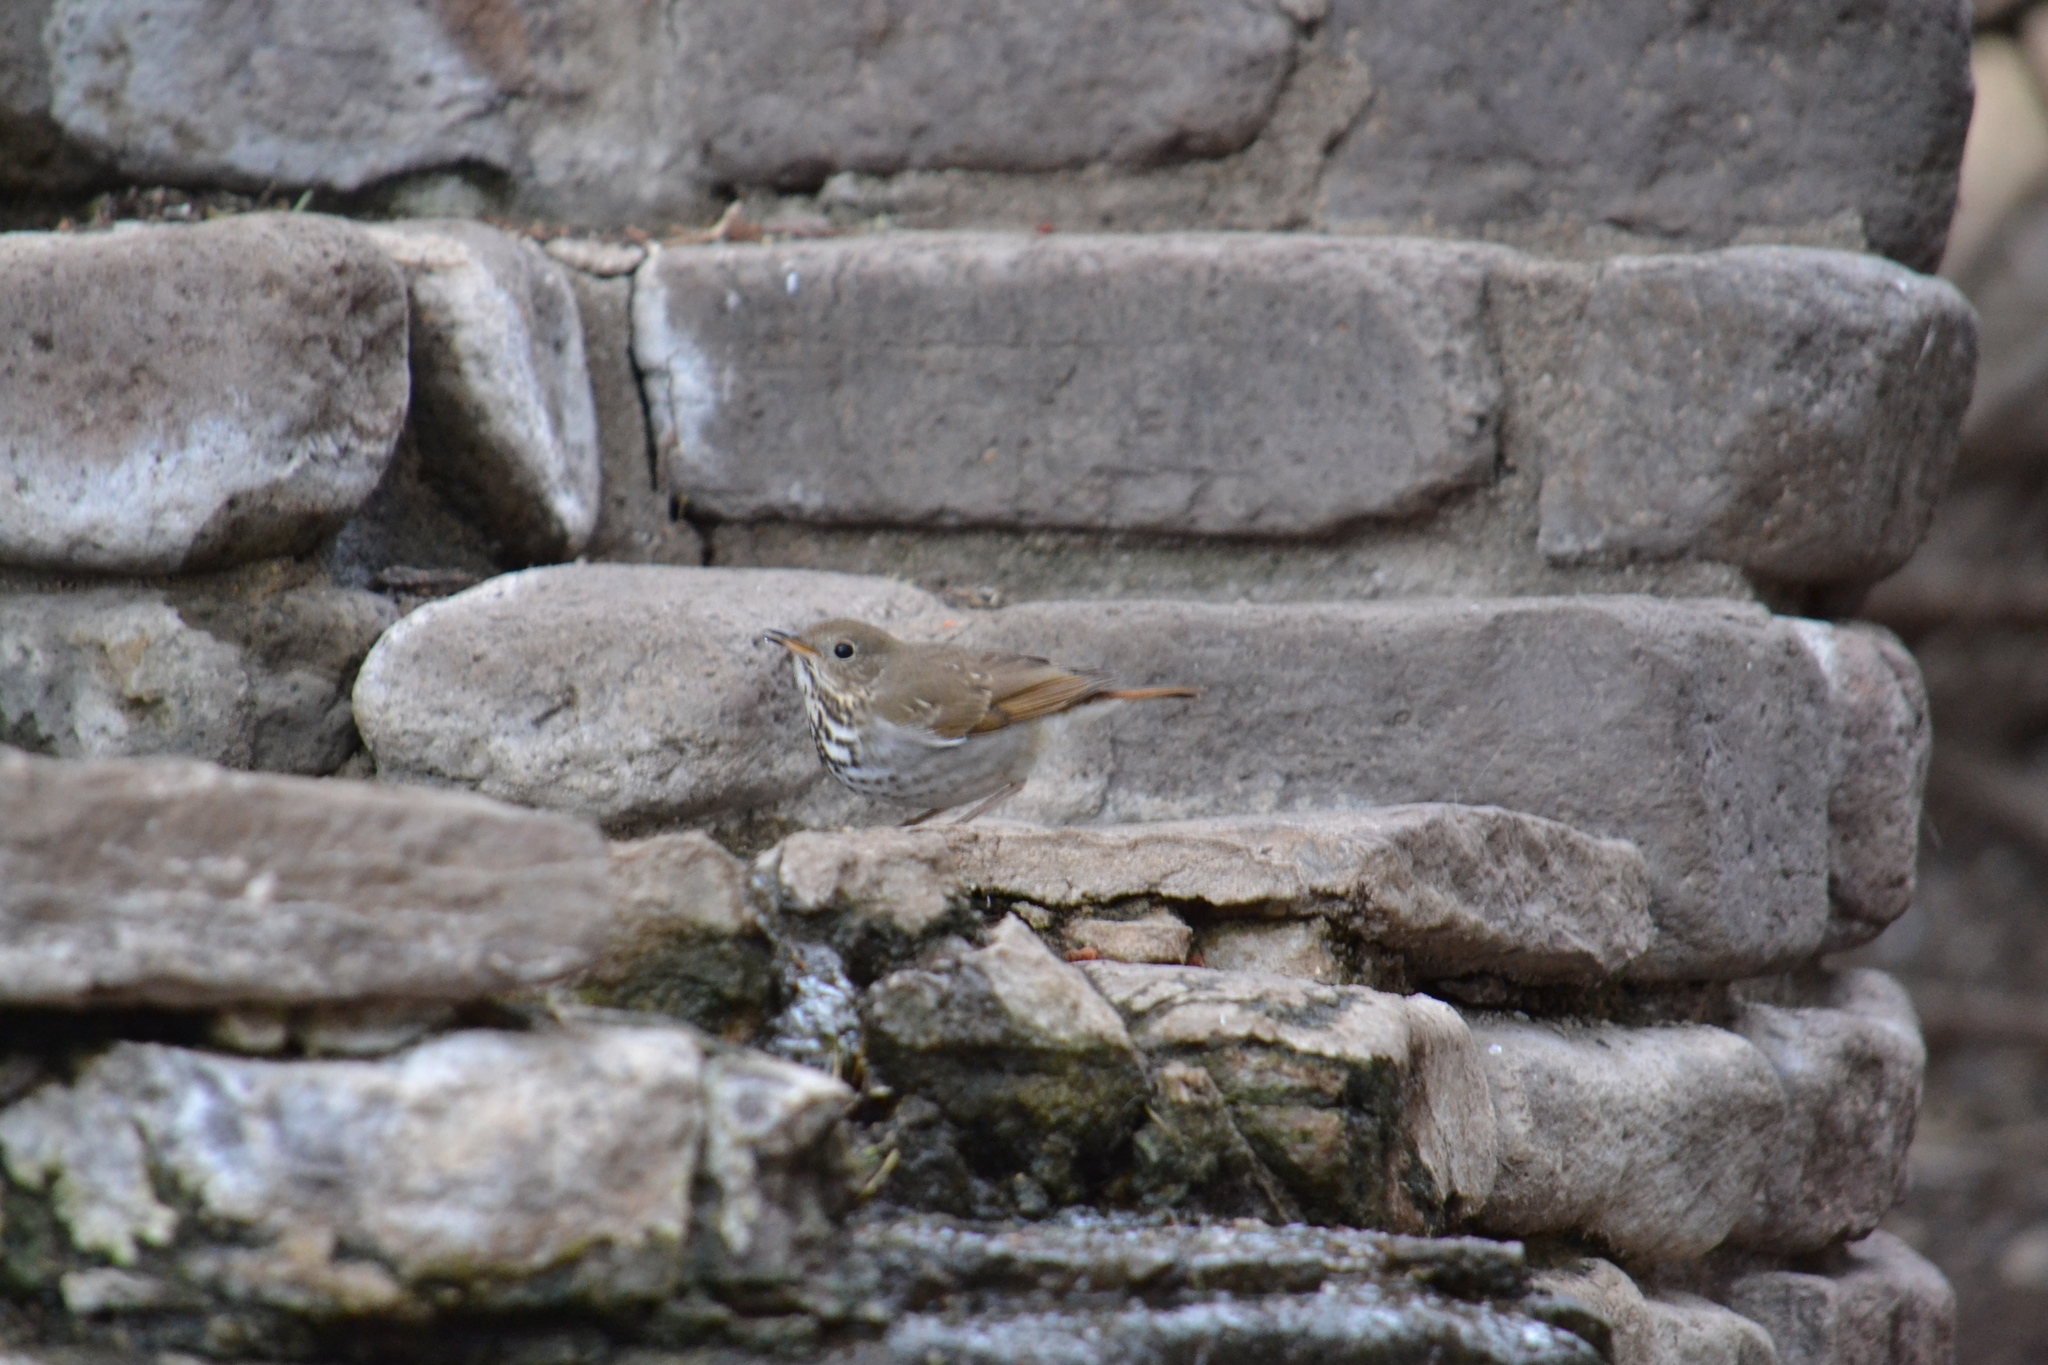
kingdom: Animalia
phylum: Chordata
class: Aves
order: Passeriformes
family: Turdidae
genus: Catharus
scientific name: Catharus guttatus
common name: Hermit thrush
